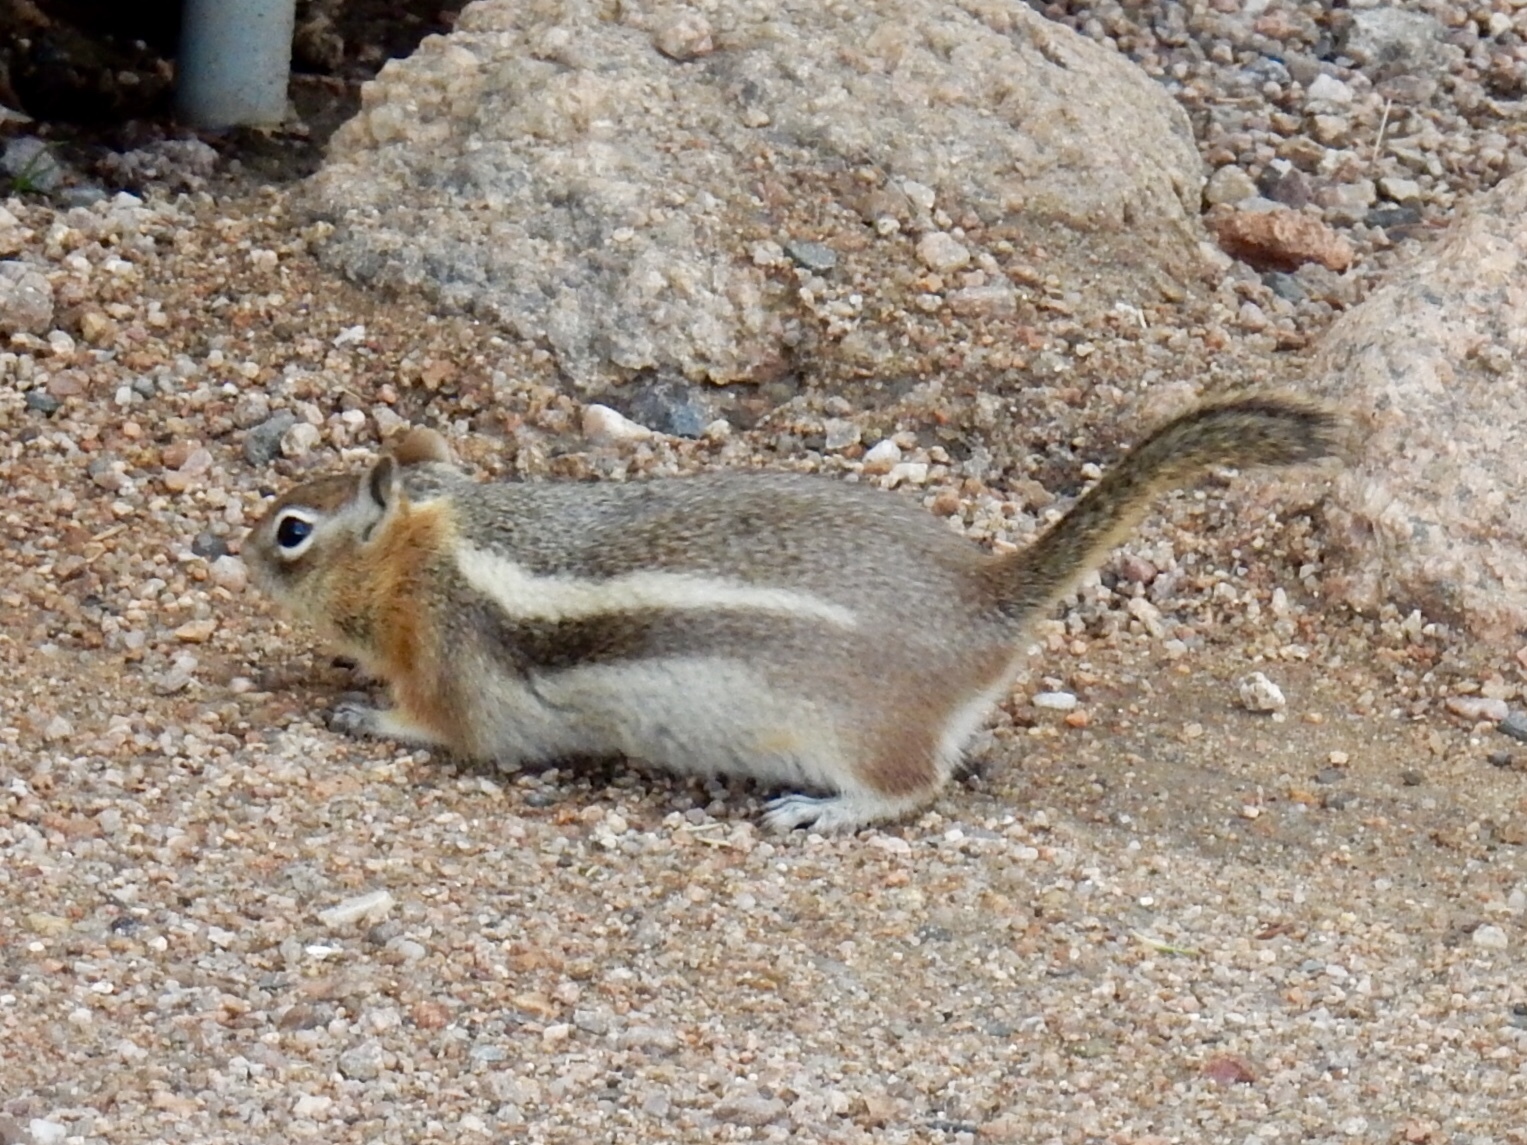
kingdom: Animalia
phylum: Chordata
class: Mammalia
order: Rodentia
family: Sciuridae
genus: Callospermophilus
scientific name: Callospermophilus lateralis
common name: Golden-mantled ground squirrel
